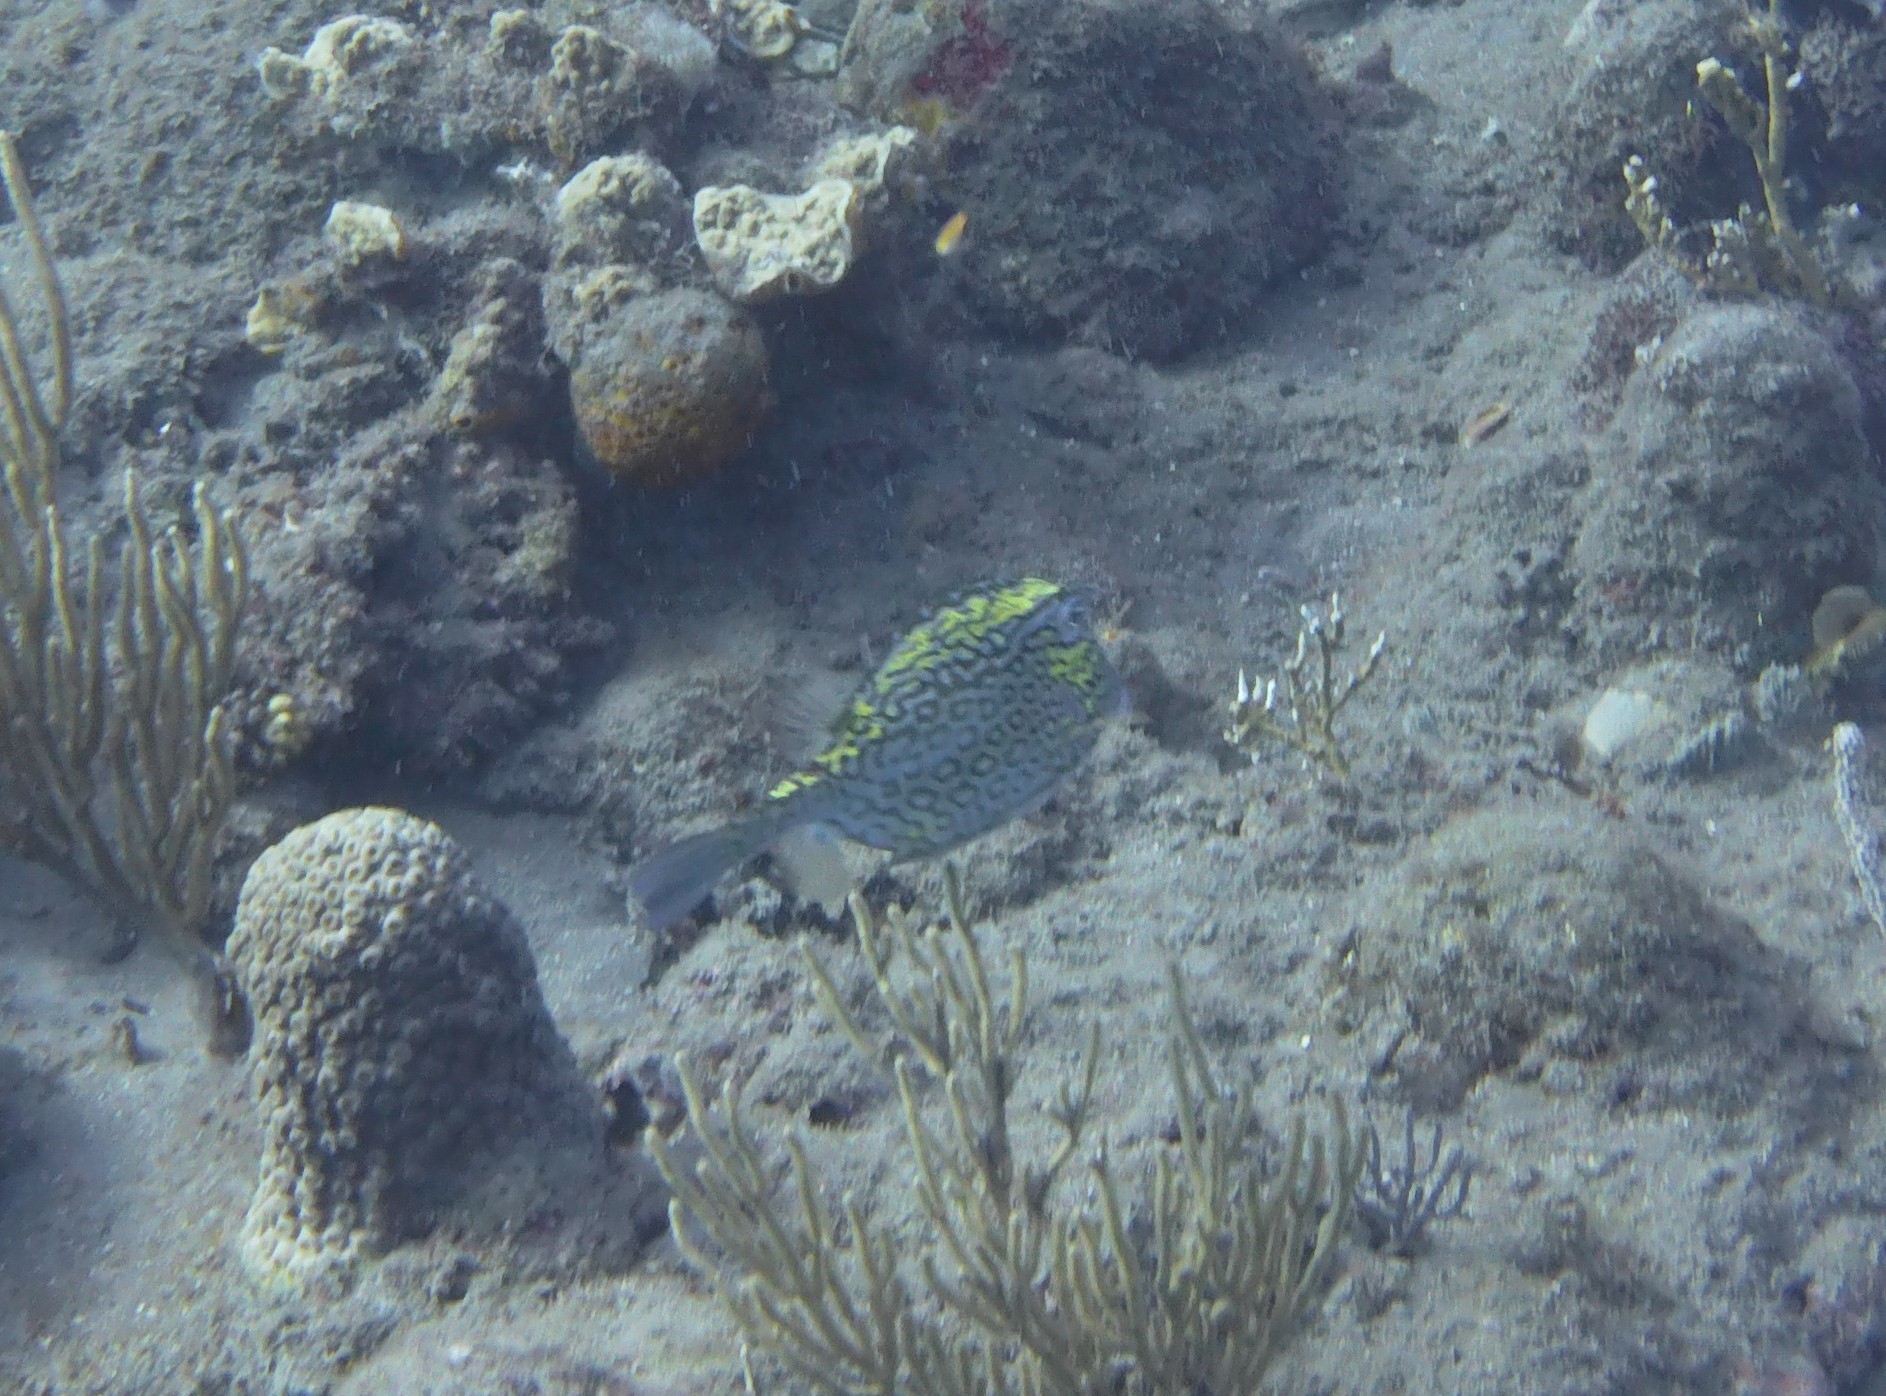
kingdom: Animalia
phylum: Chordata
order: Tetraodontiformes
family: Ostraciidae
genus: Acanthostracion
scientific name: Acanthostracion polygonius
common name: Honeycomb cowfish
